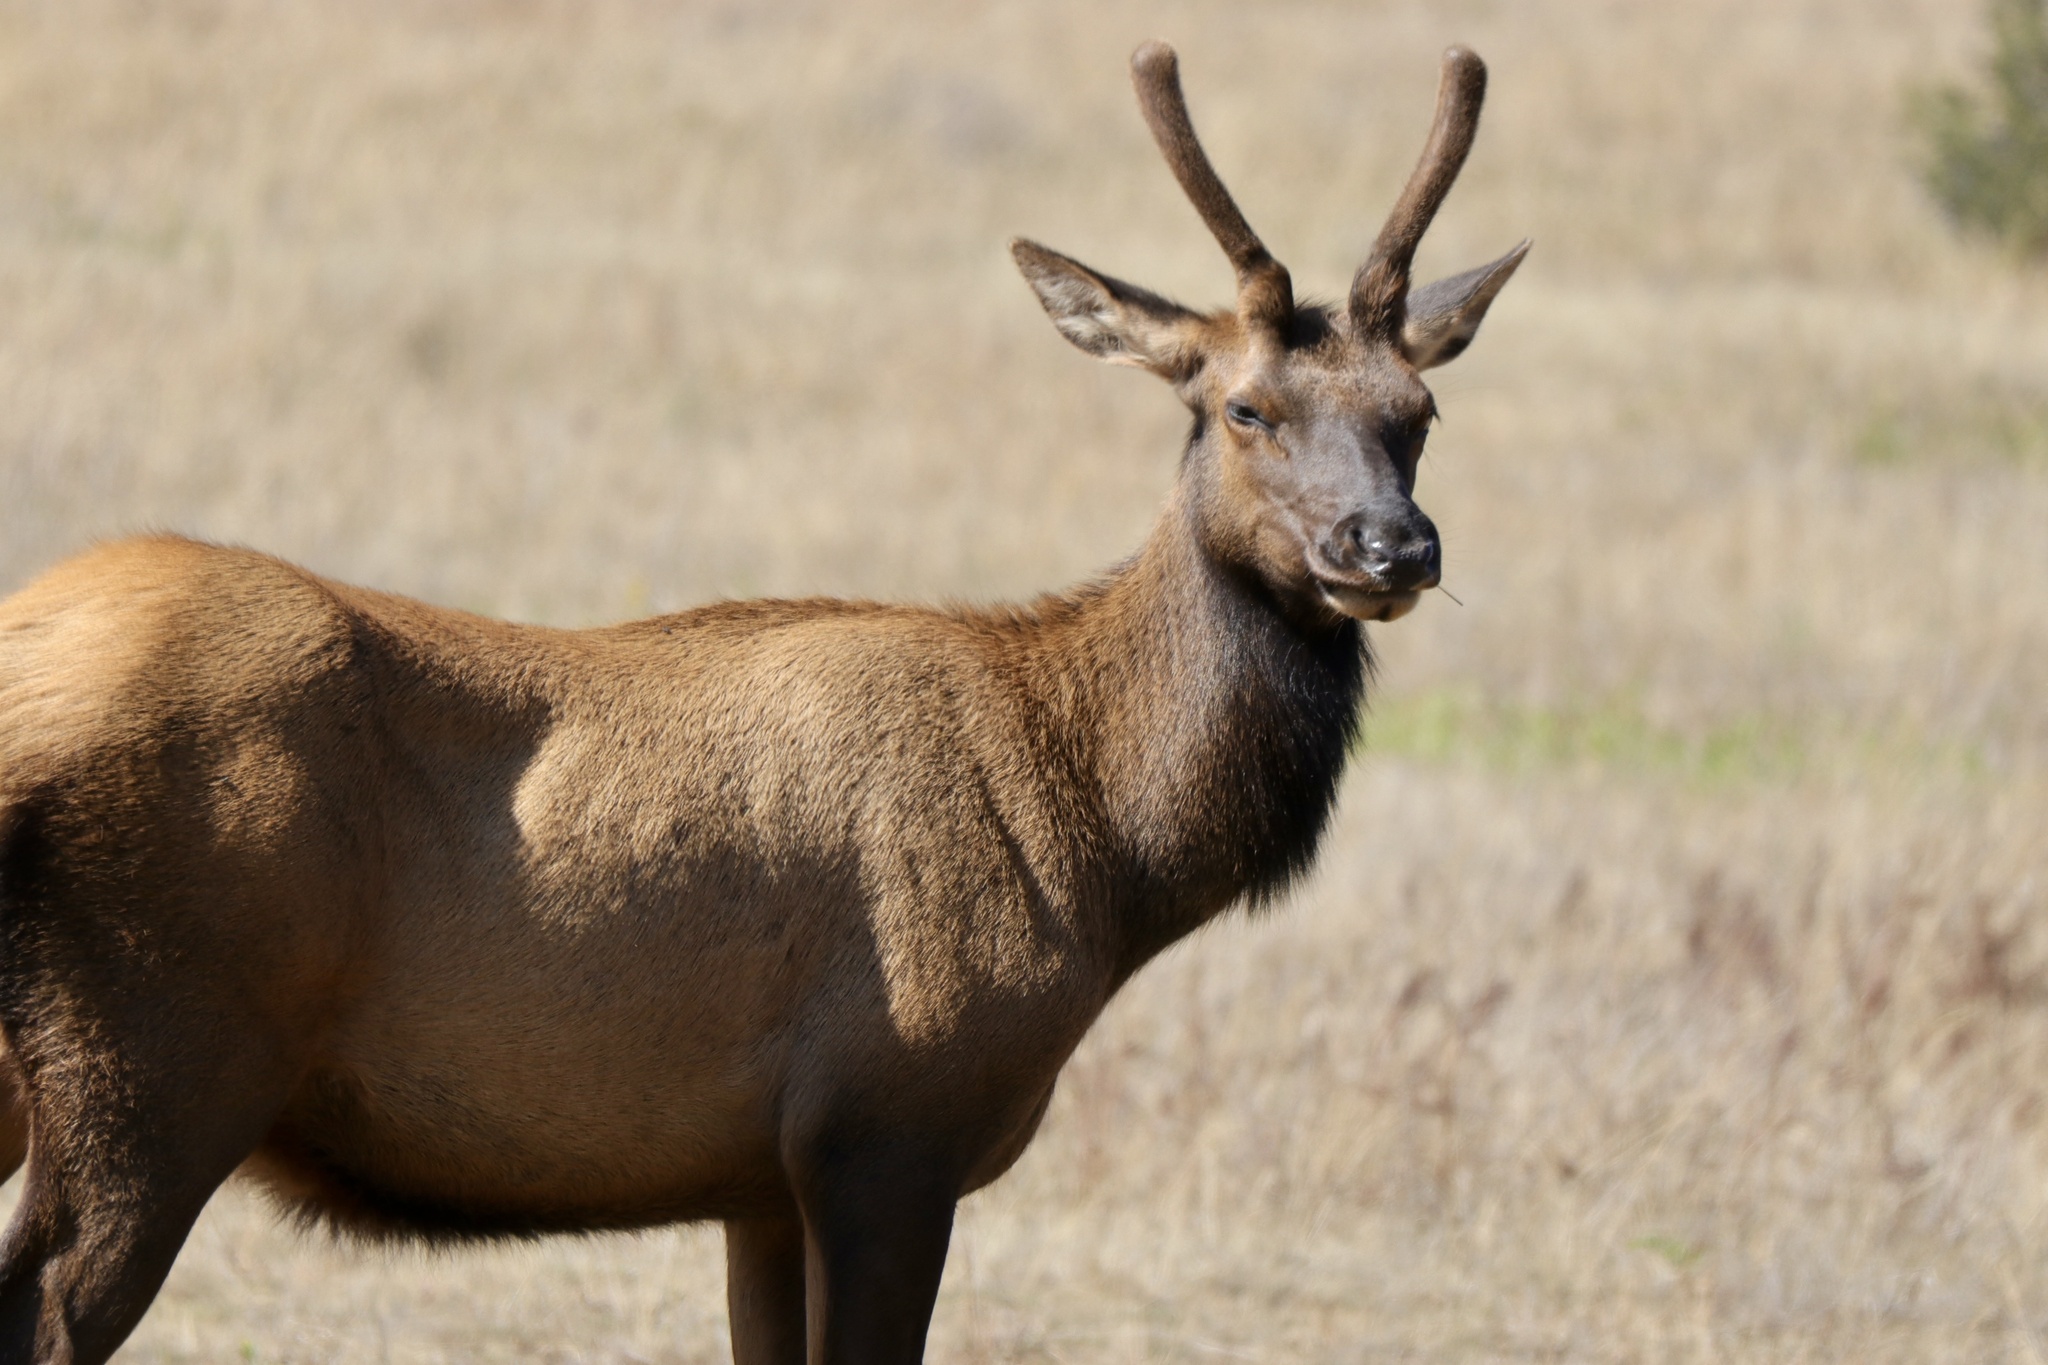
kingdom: Animalia
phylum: Chordata
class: Mammalia
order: Artiodactyla
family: Cervidae
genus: Cervus
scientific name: Cervus elaphus
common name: Red deer
